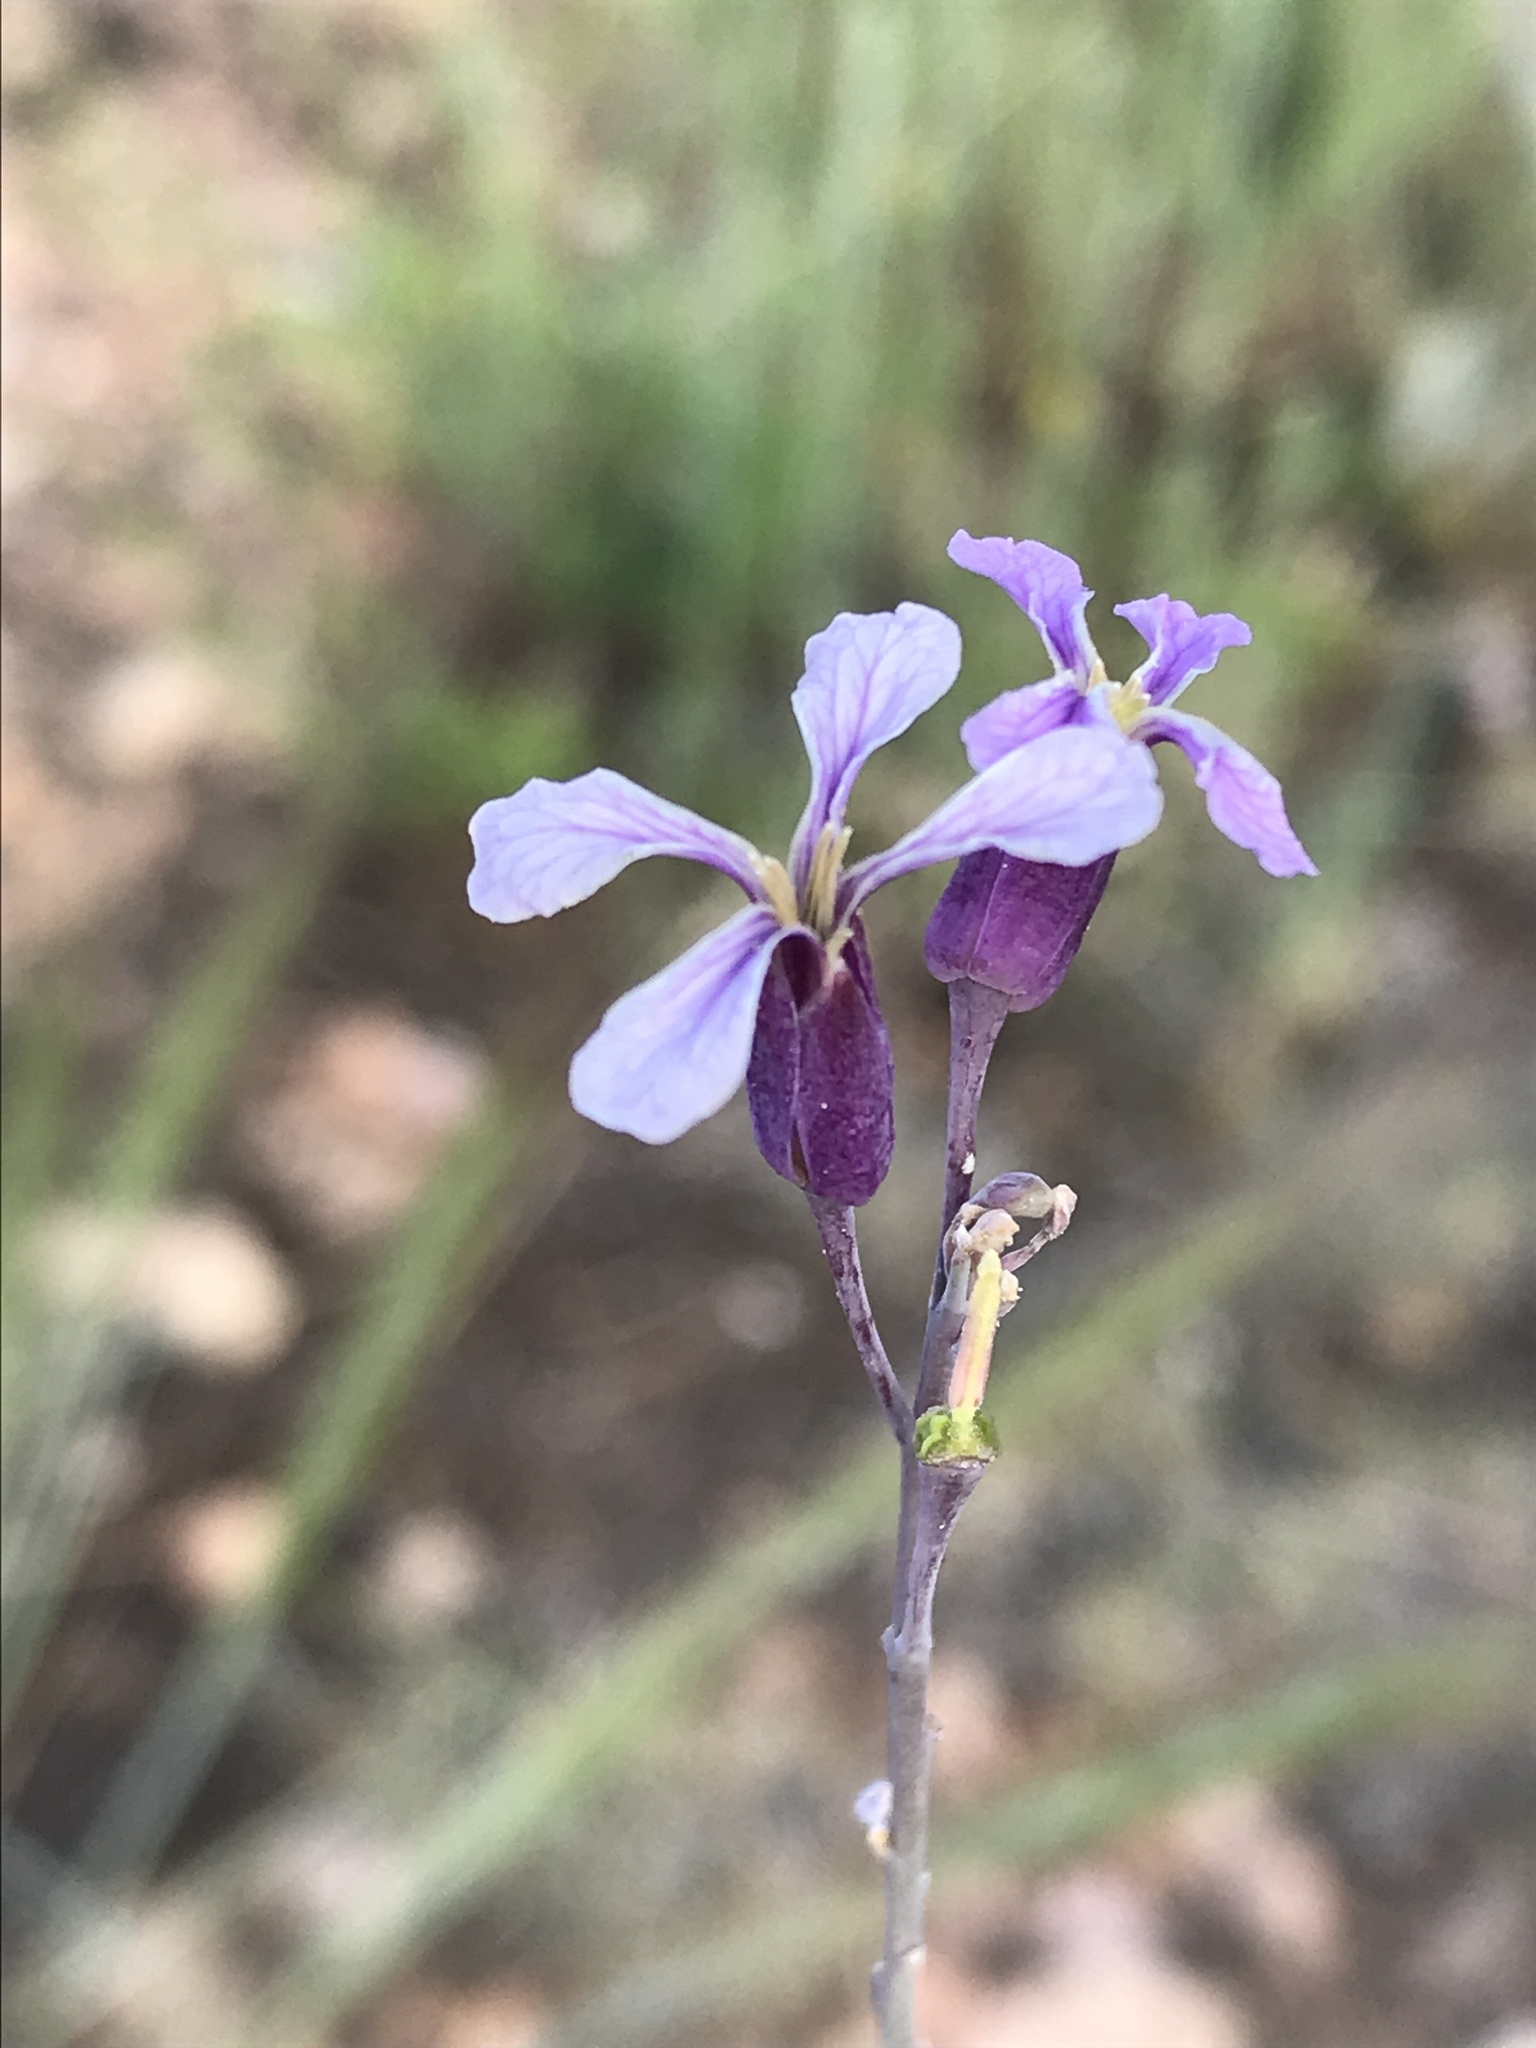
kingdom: Plantae
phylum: Tracheophyta
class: Magnoliopsida
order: Brassicales
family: Brassicaceae
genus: Hesperidanthus
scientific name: Hesperidanthus linearifolius
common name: Slim-leaf plains mustard
